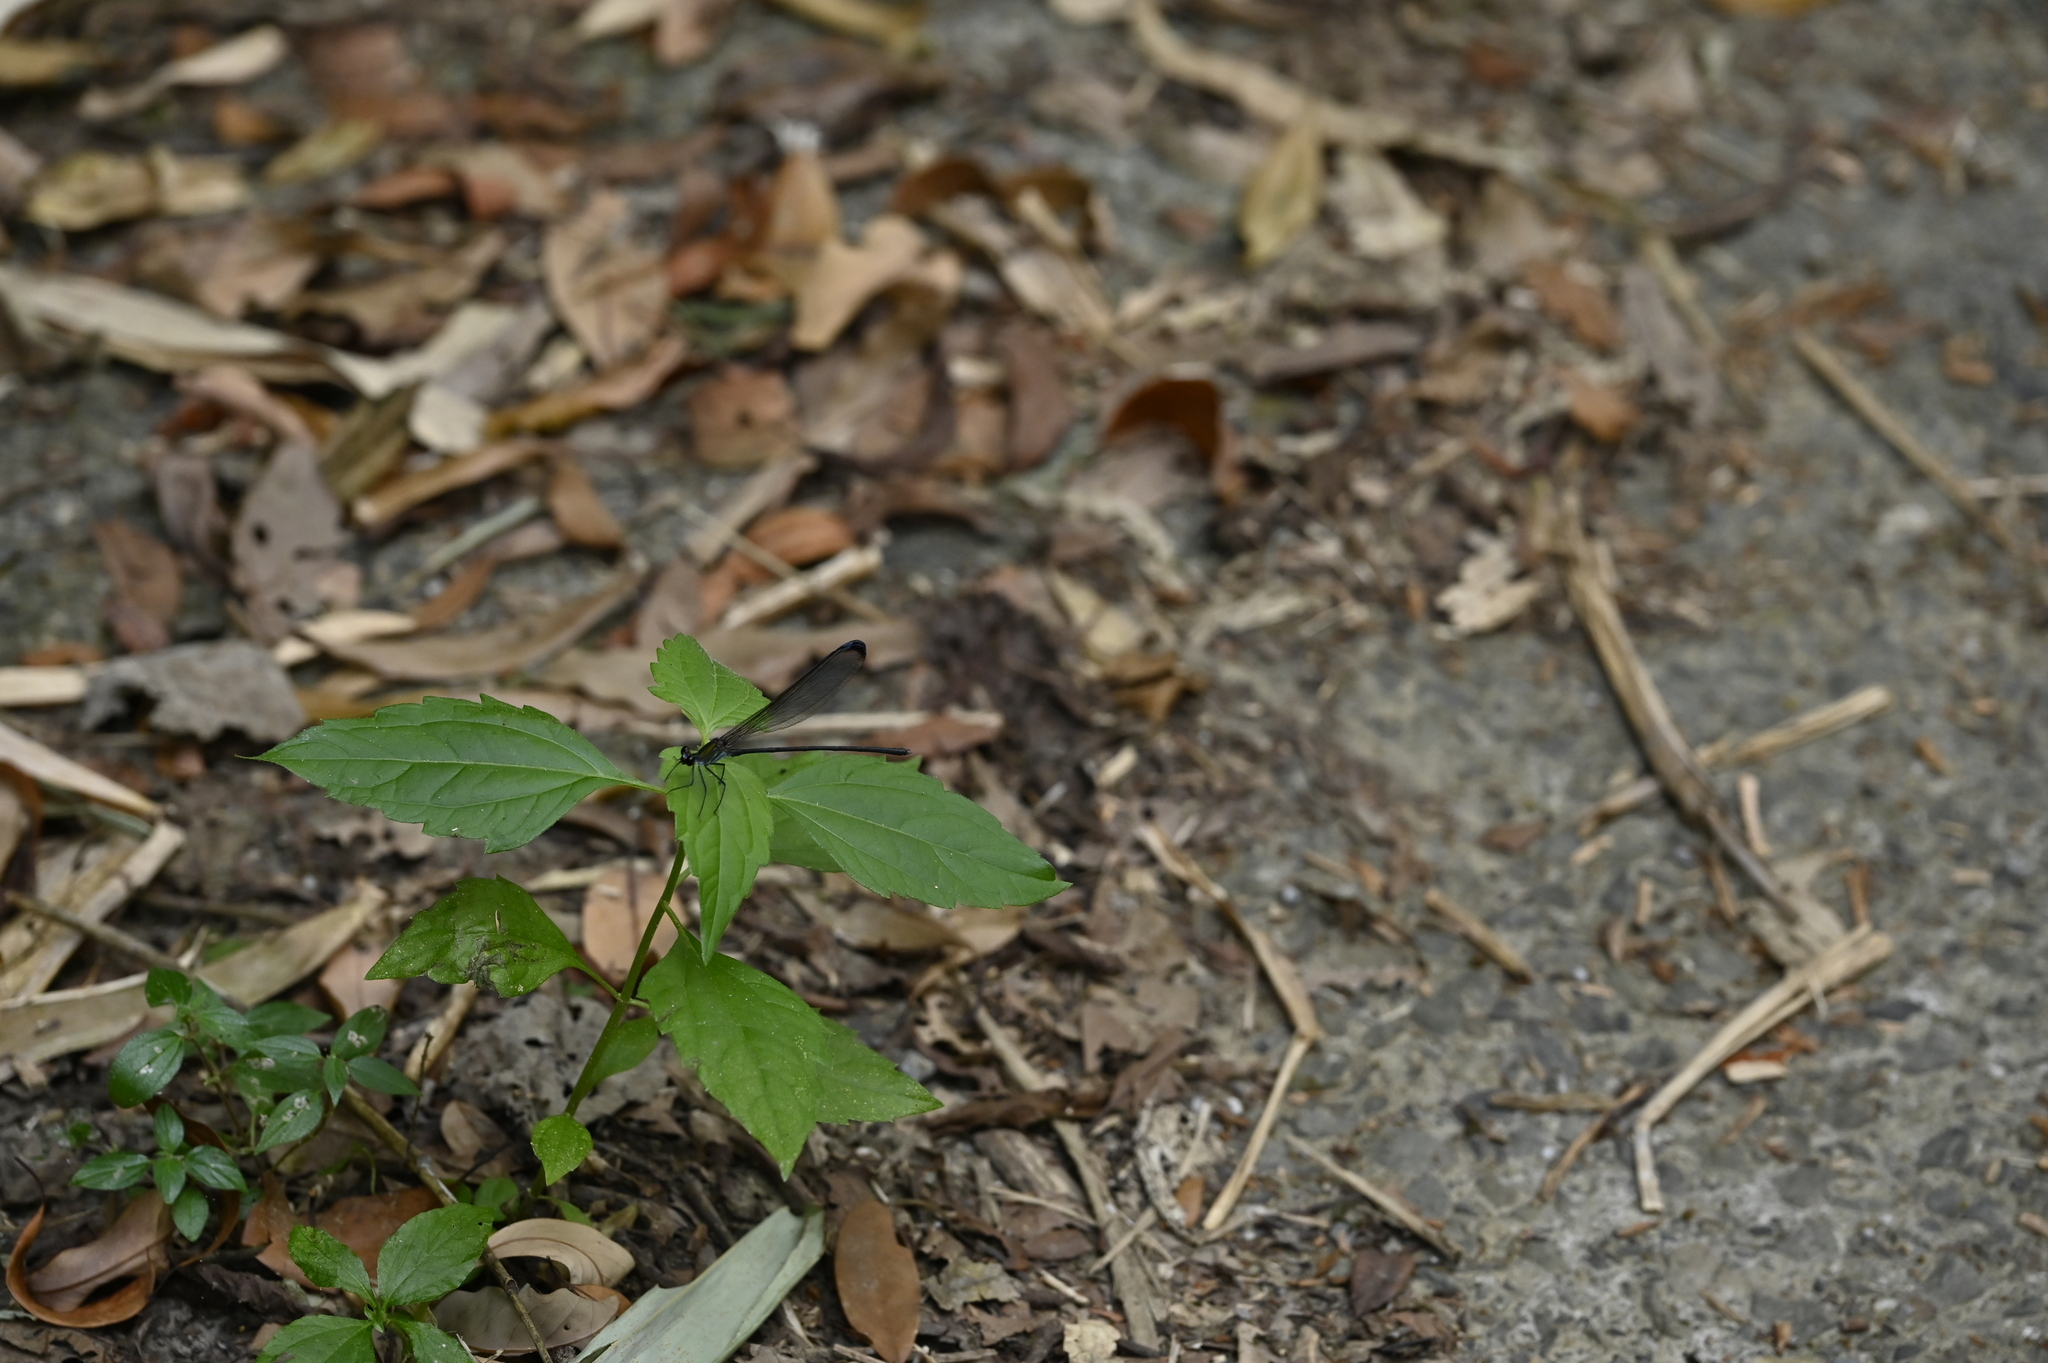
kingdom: Animalia
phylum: Arthropoda
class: Insecta
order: Odonata
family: Calopterygidae
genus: Psolodesmus
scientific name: Psolodesmus mandarinus
